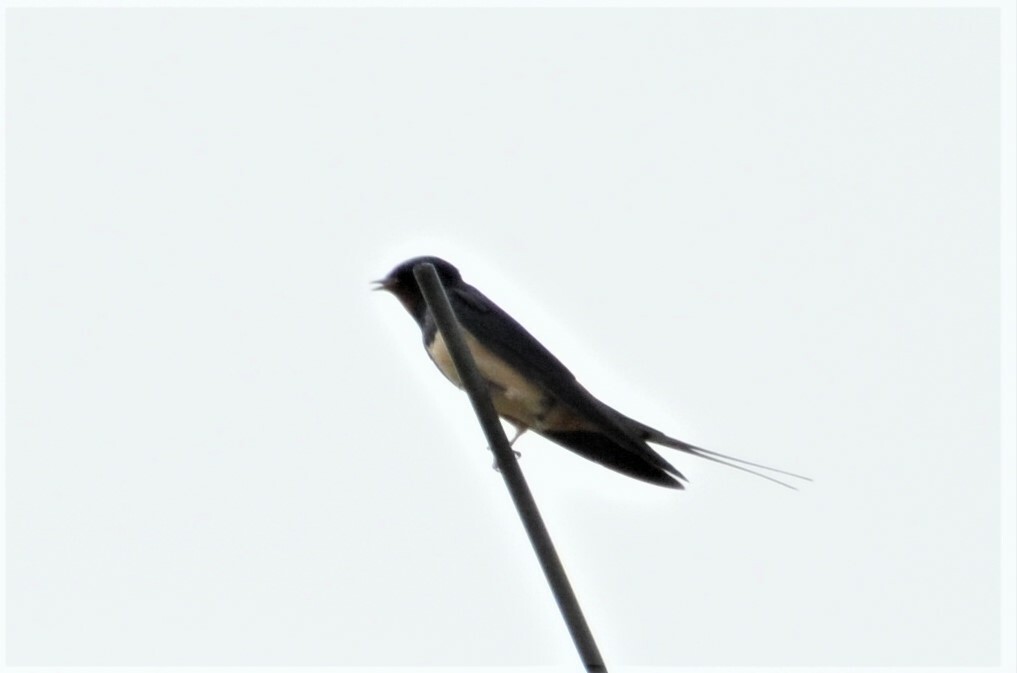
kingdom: Animalia
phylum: Chordata
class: Aves
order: Passeriformes
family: Hirundinidae
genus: Hirundo
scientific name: Hirundo rustica
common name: Barn swallow
